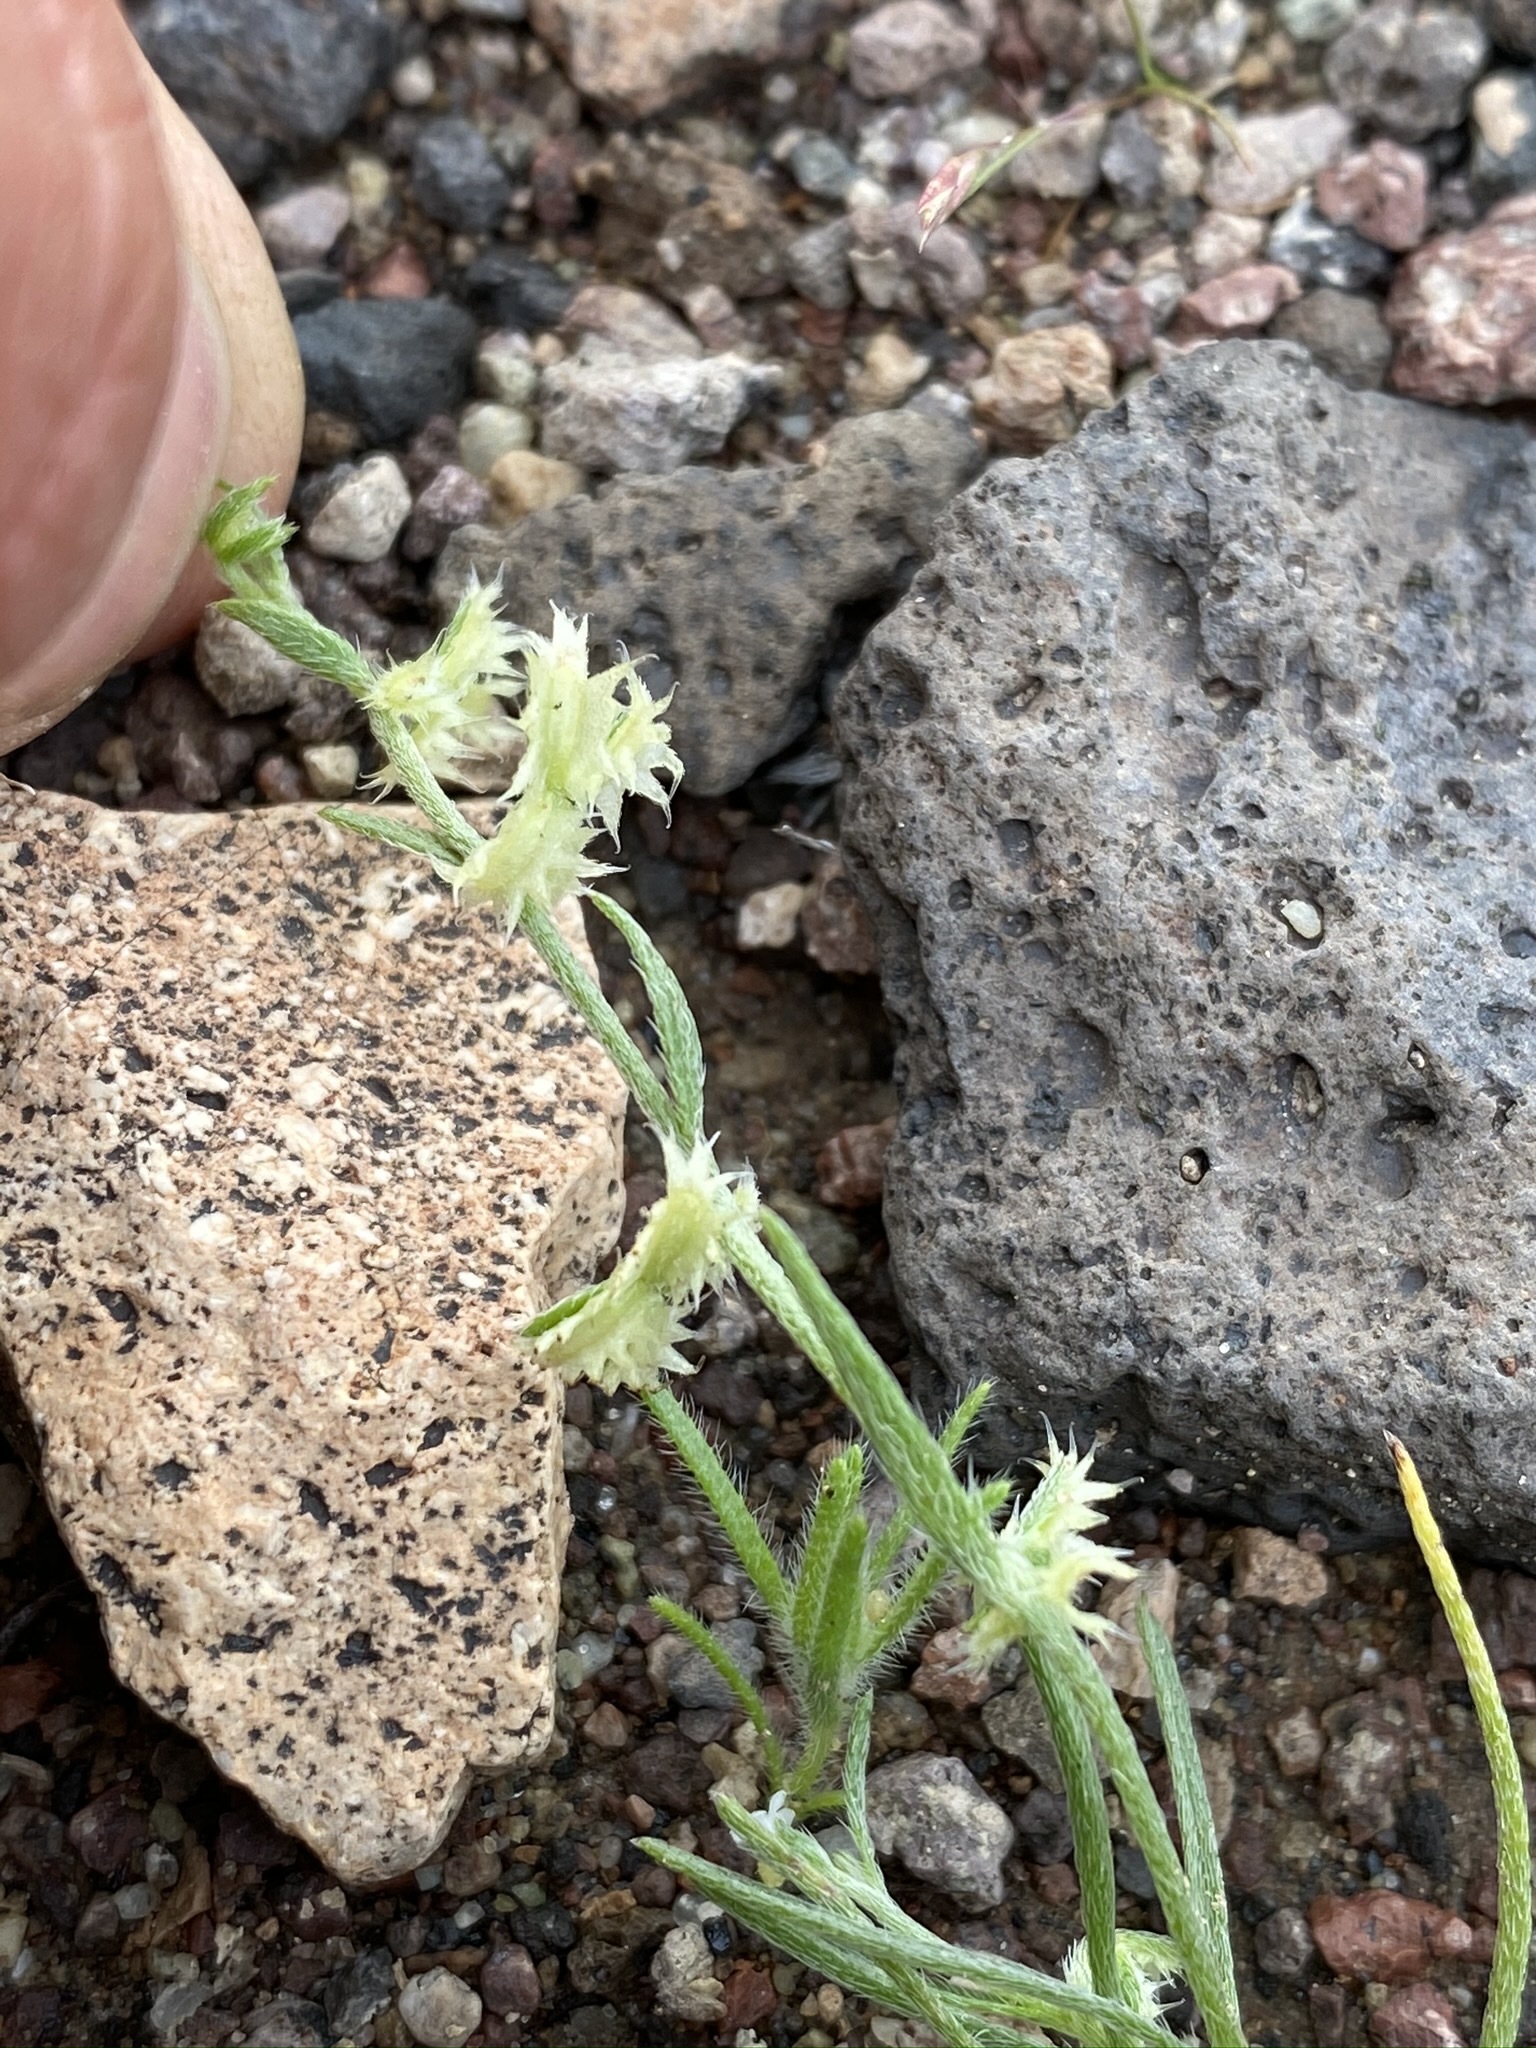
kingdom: Plantae
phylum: Tracheophyta
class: Magnoliopsida
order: Boraginales
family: Boraginaceae
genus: Pectocarya
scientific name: Pectocarya platycarpa
